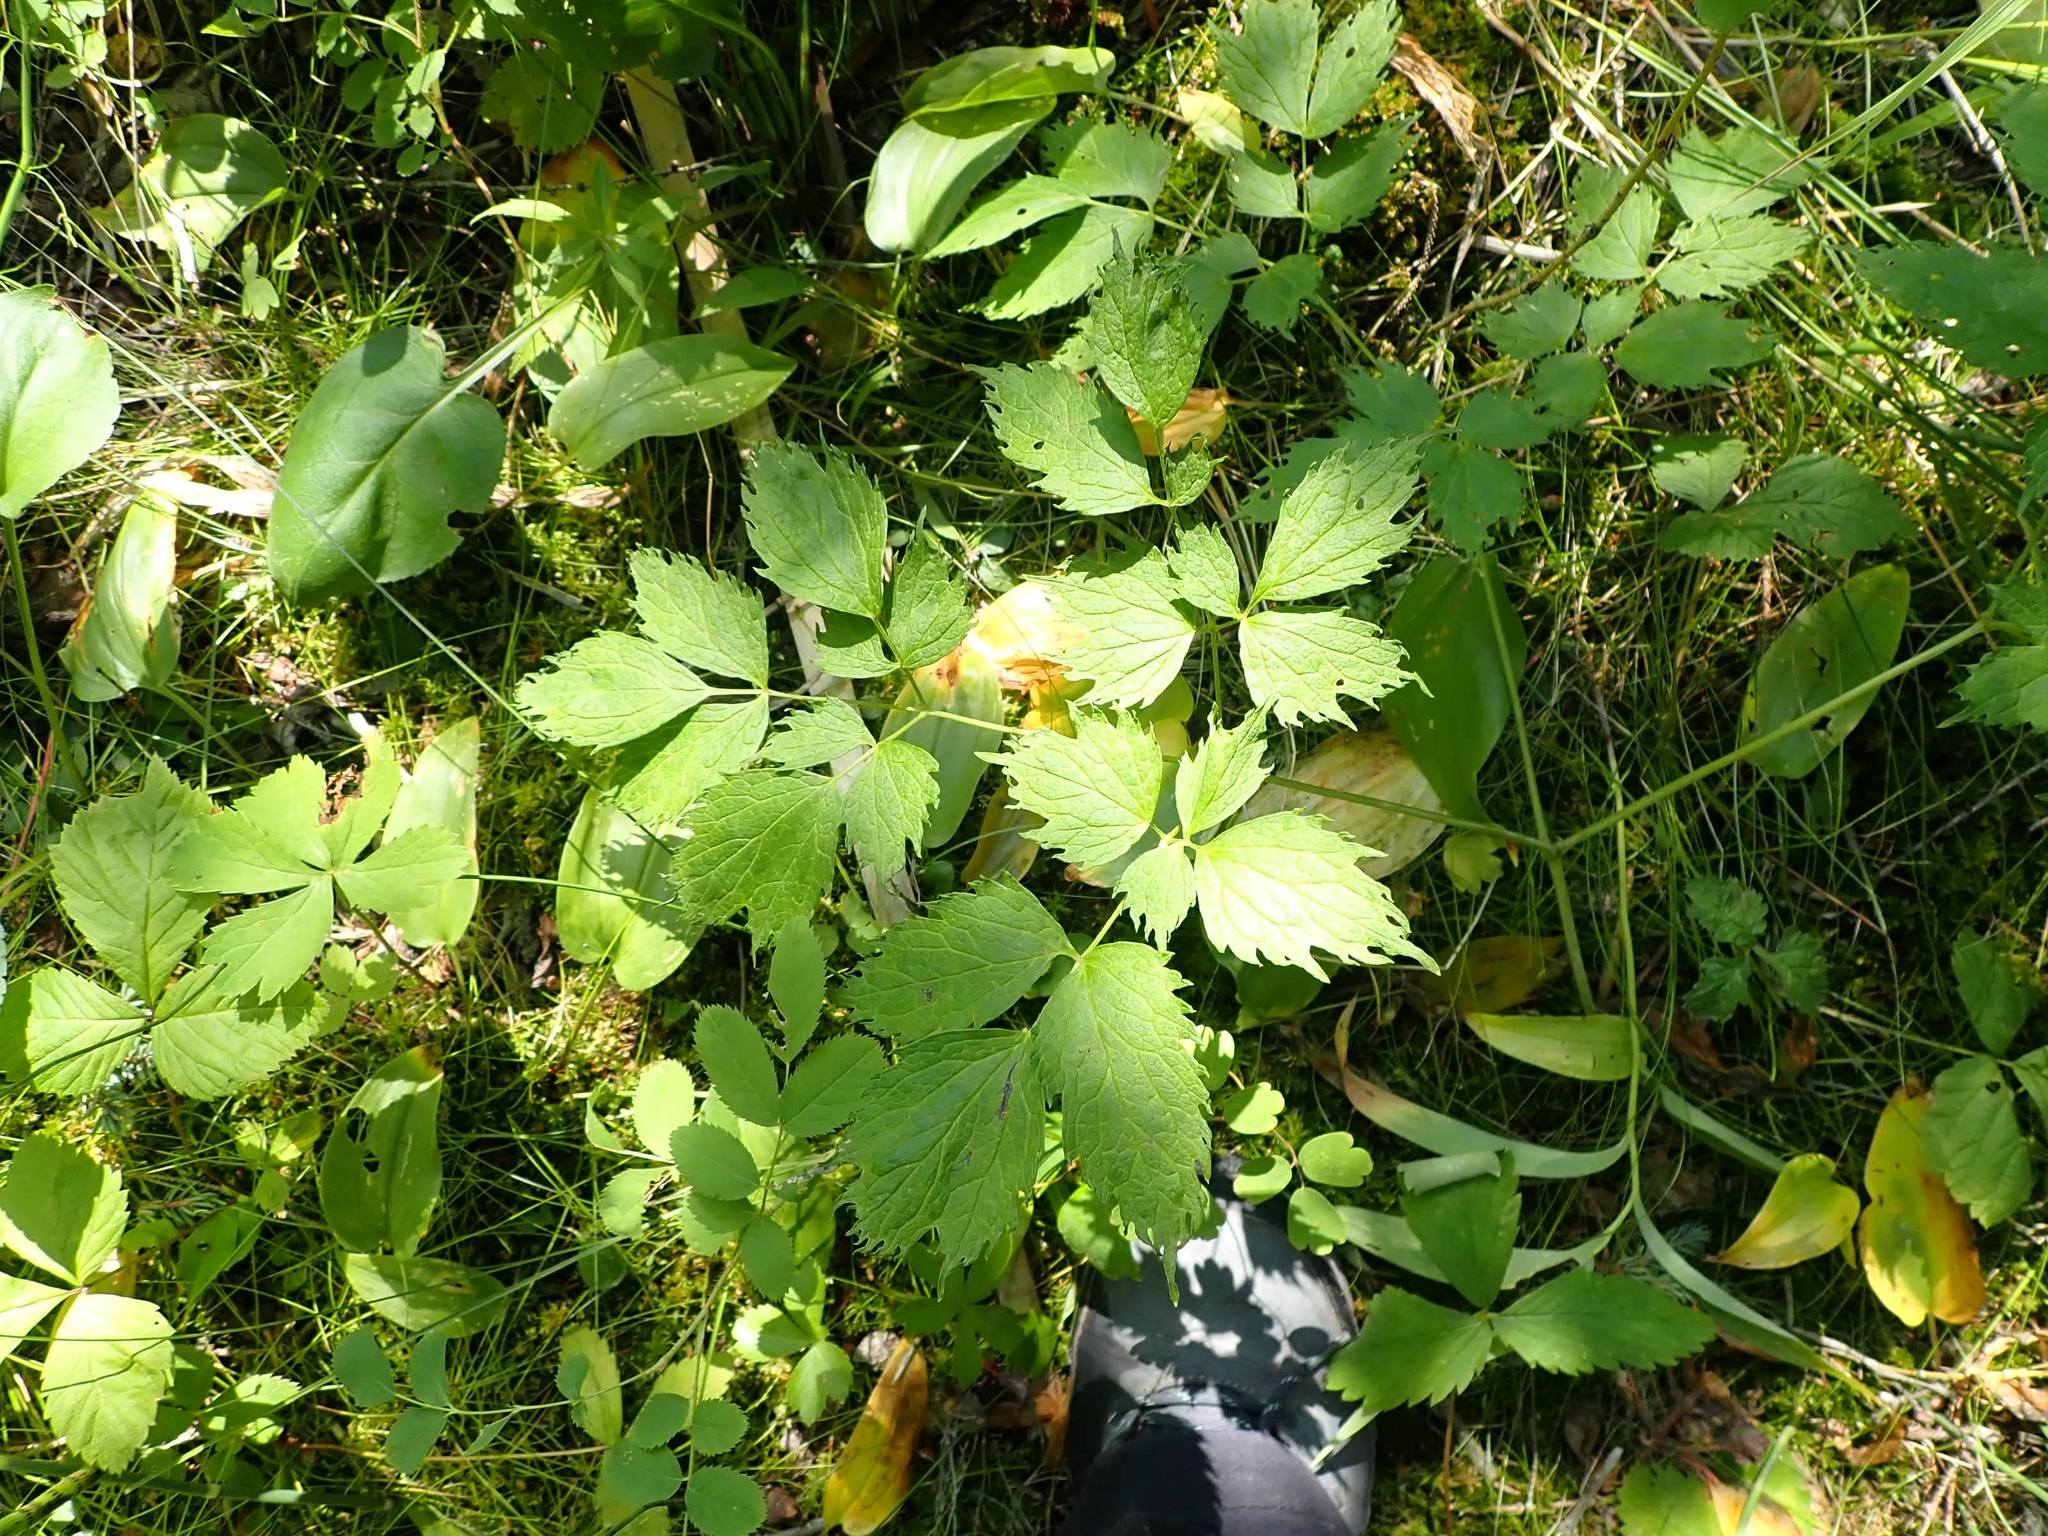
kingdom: Plantae
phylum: Tracheophyta
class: Magnoliopsida
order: Ranunculales
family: Ranunculaceae
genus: Actaea
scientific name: Actaea rubra
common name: Red baneberry
